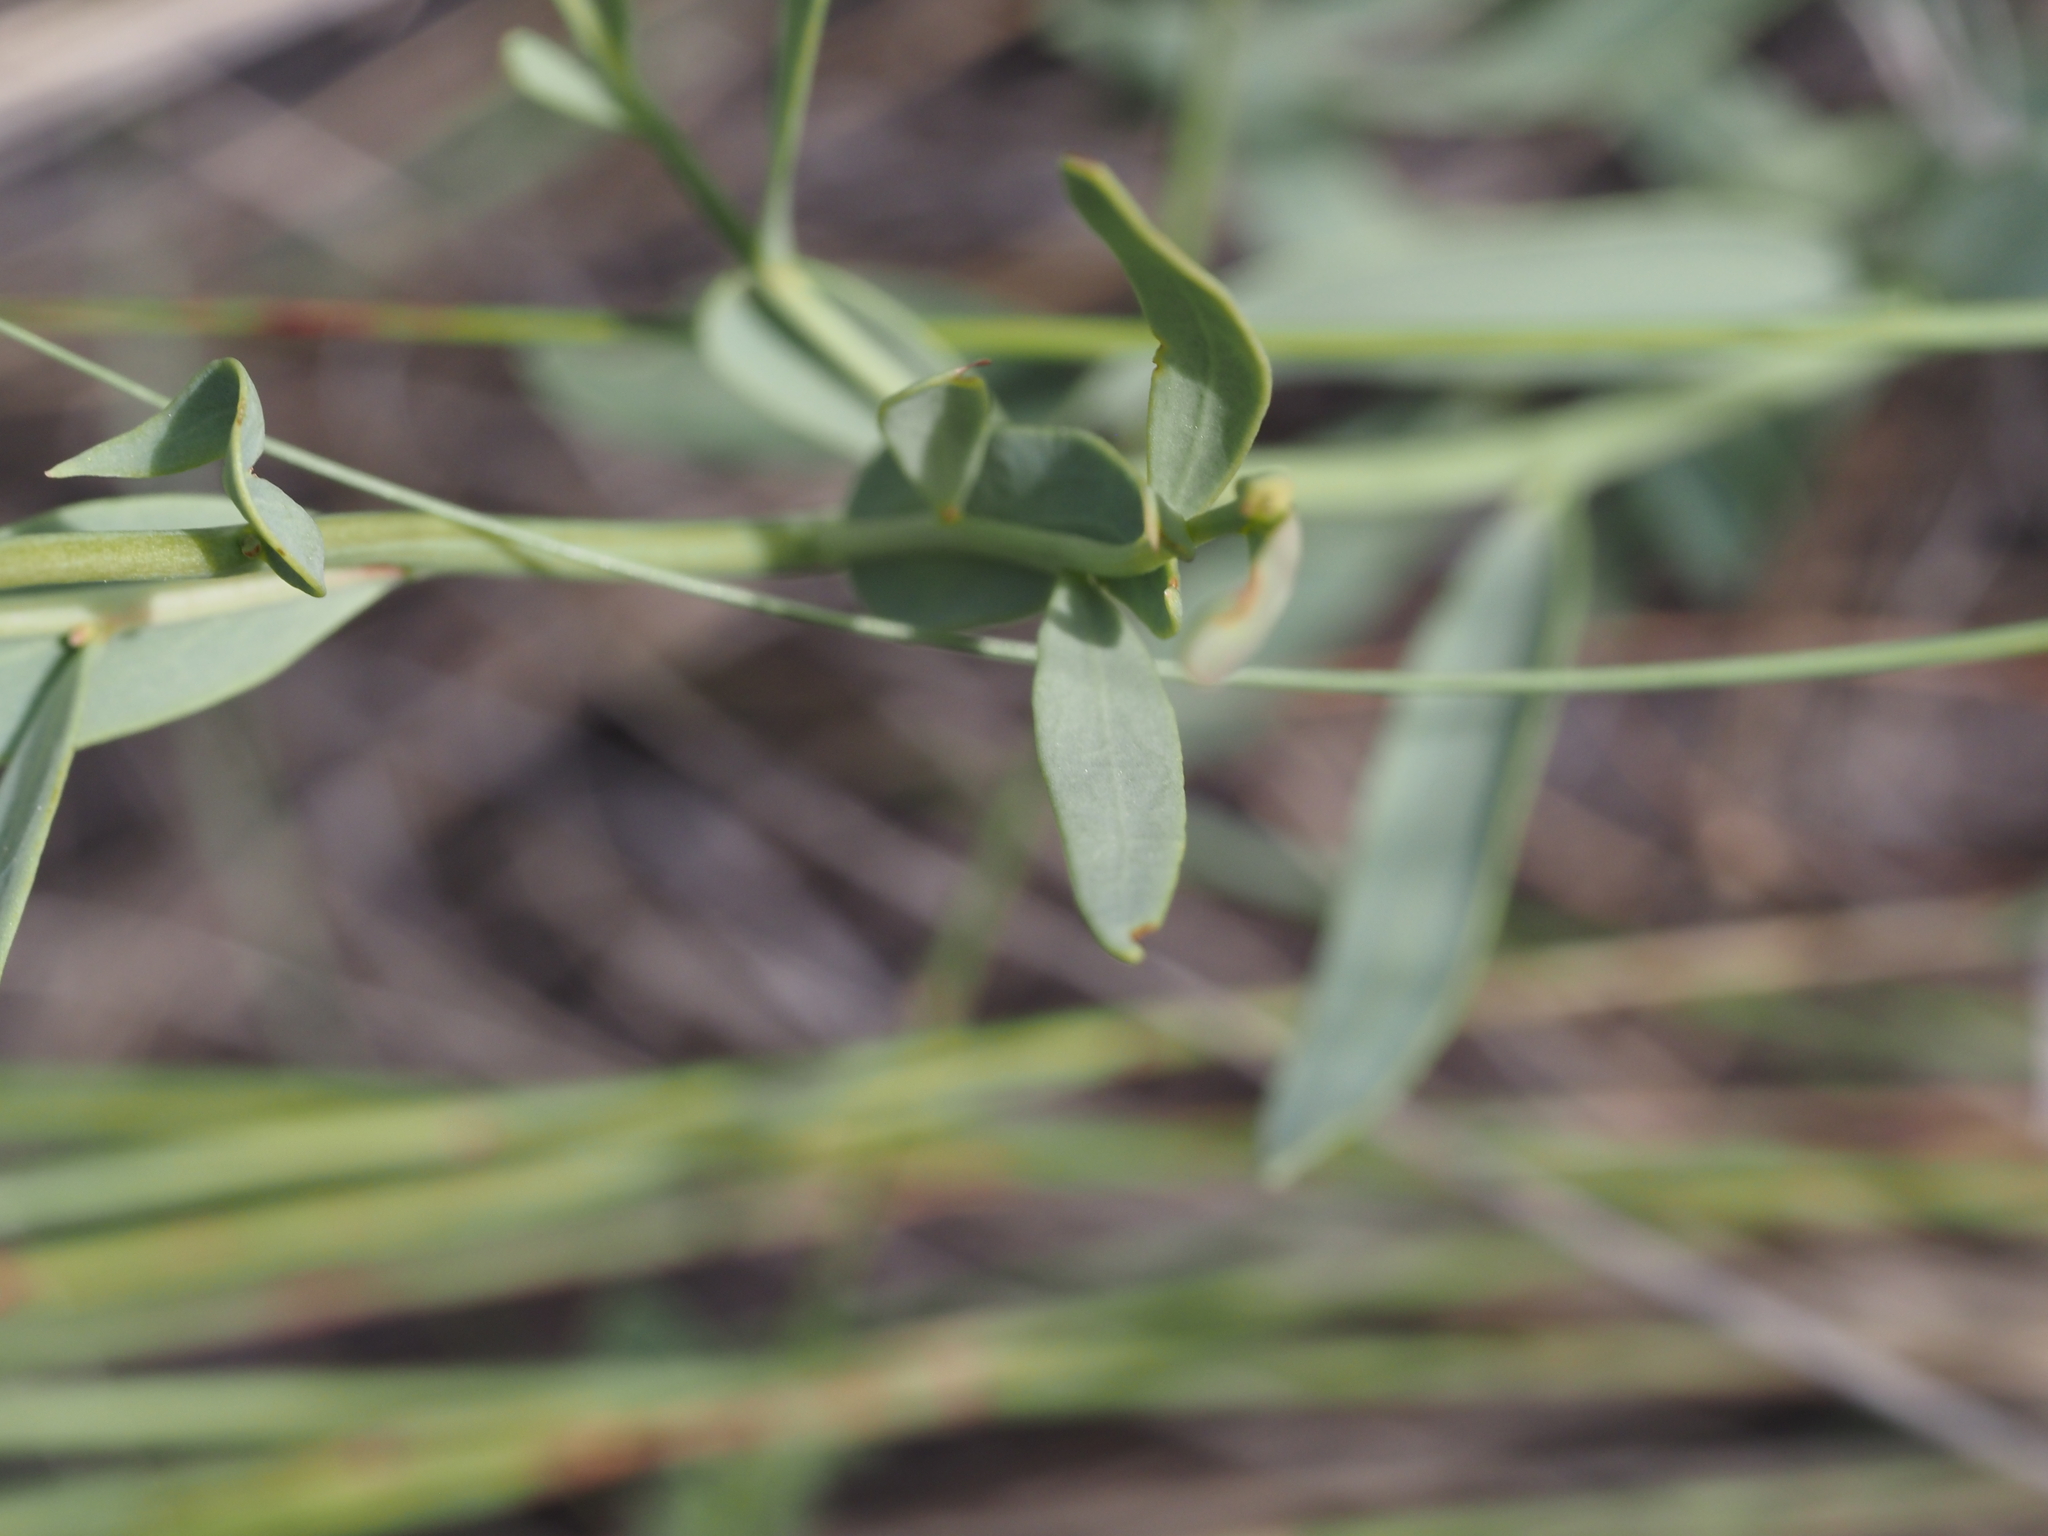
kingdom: Plantae
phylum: Tracheophyta
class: Magnoliopsida
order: Santalales
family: Comandraceae
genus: Comandra
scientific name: Comandra umbellata
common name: Bastard toadflax
